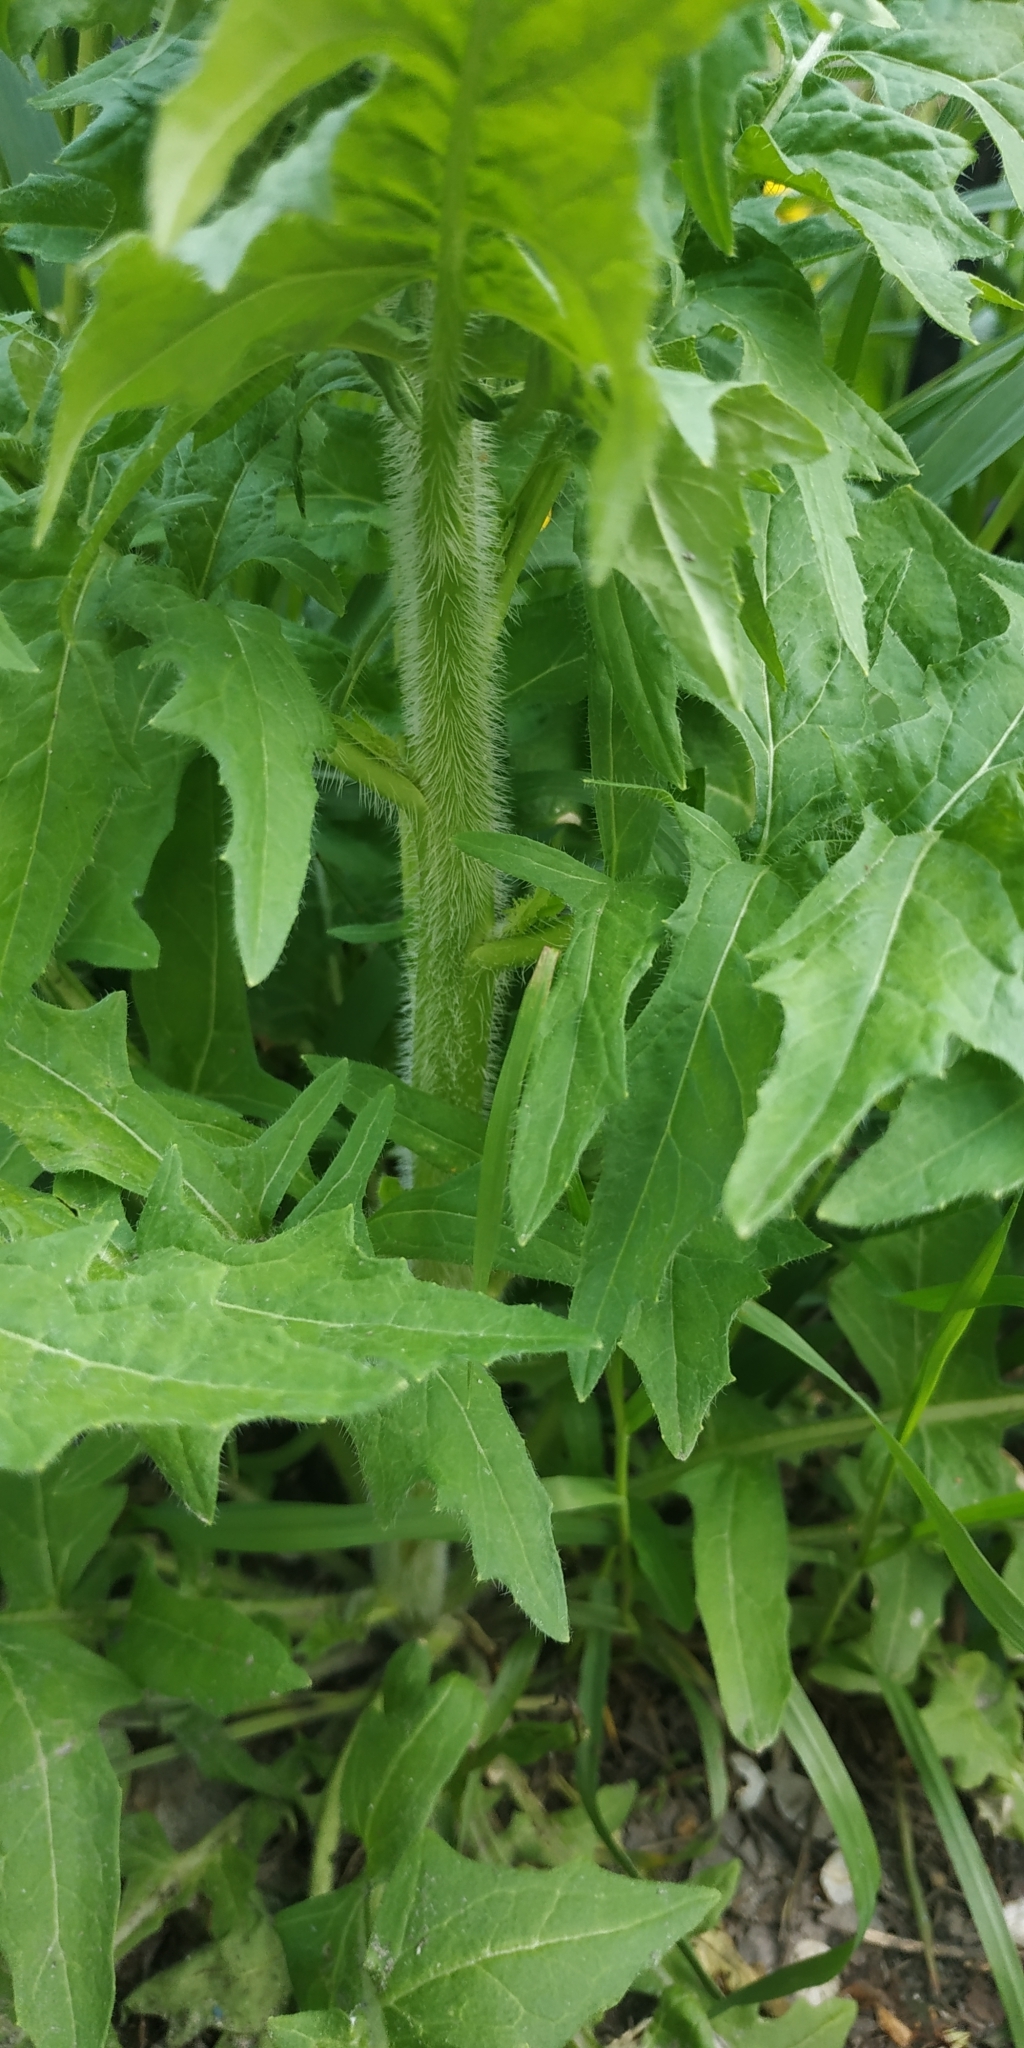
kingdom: Plantae
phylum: Tracheophyta
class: Magnoliopsida
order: Brassicales
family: Brassicaceae
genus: Sisymbrium
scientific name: Sisymbrium loeselii
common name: False london-rocket
